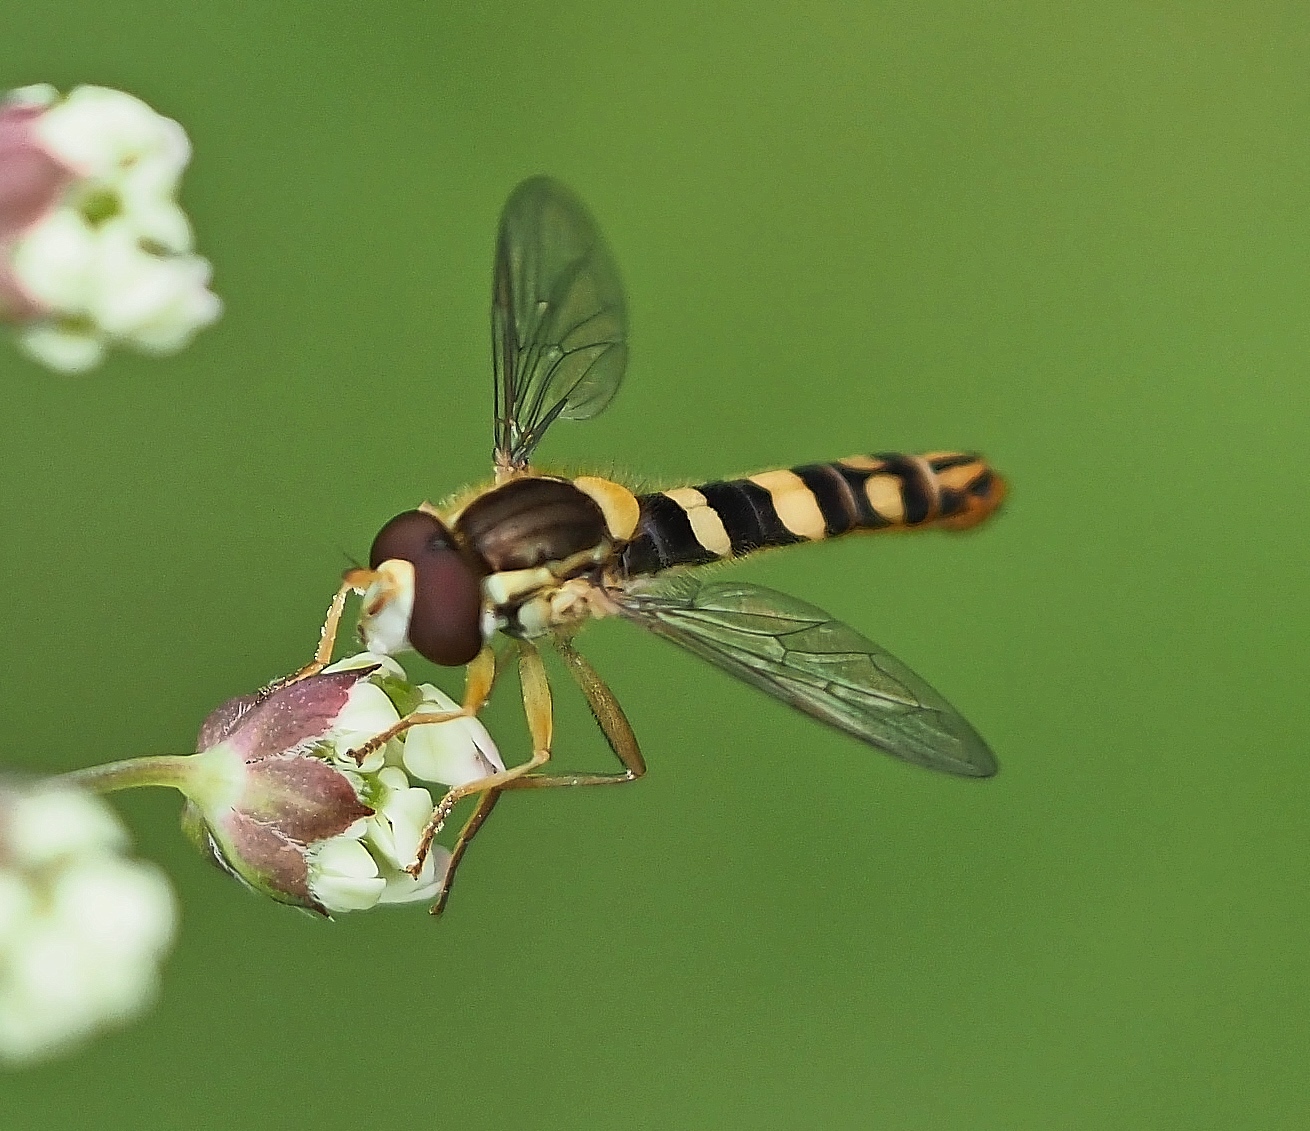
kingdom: Animalia
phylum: Arthropoda
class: Insecta
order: Diptera
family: Syrphidae
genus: Sphaerophoria
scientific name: Sphaerophoria
